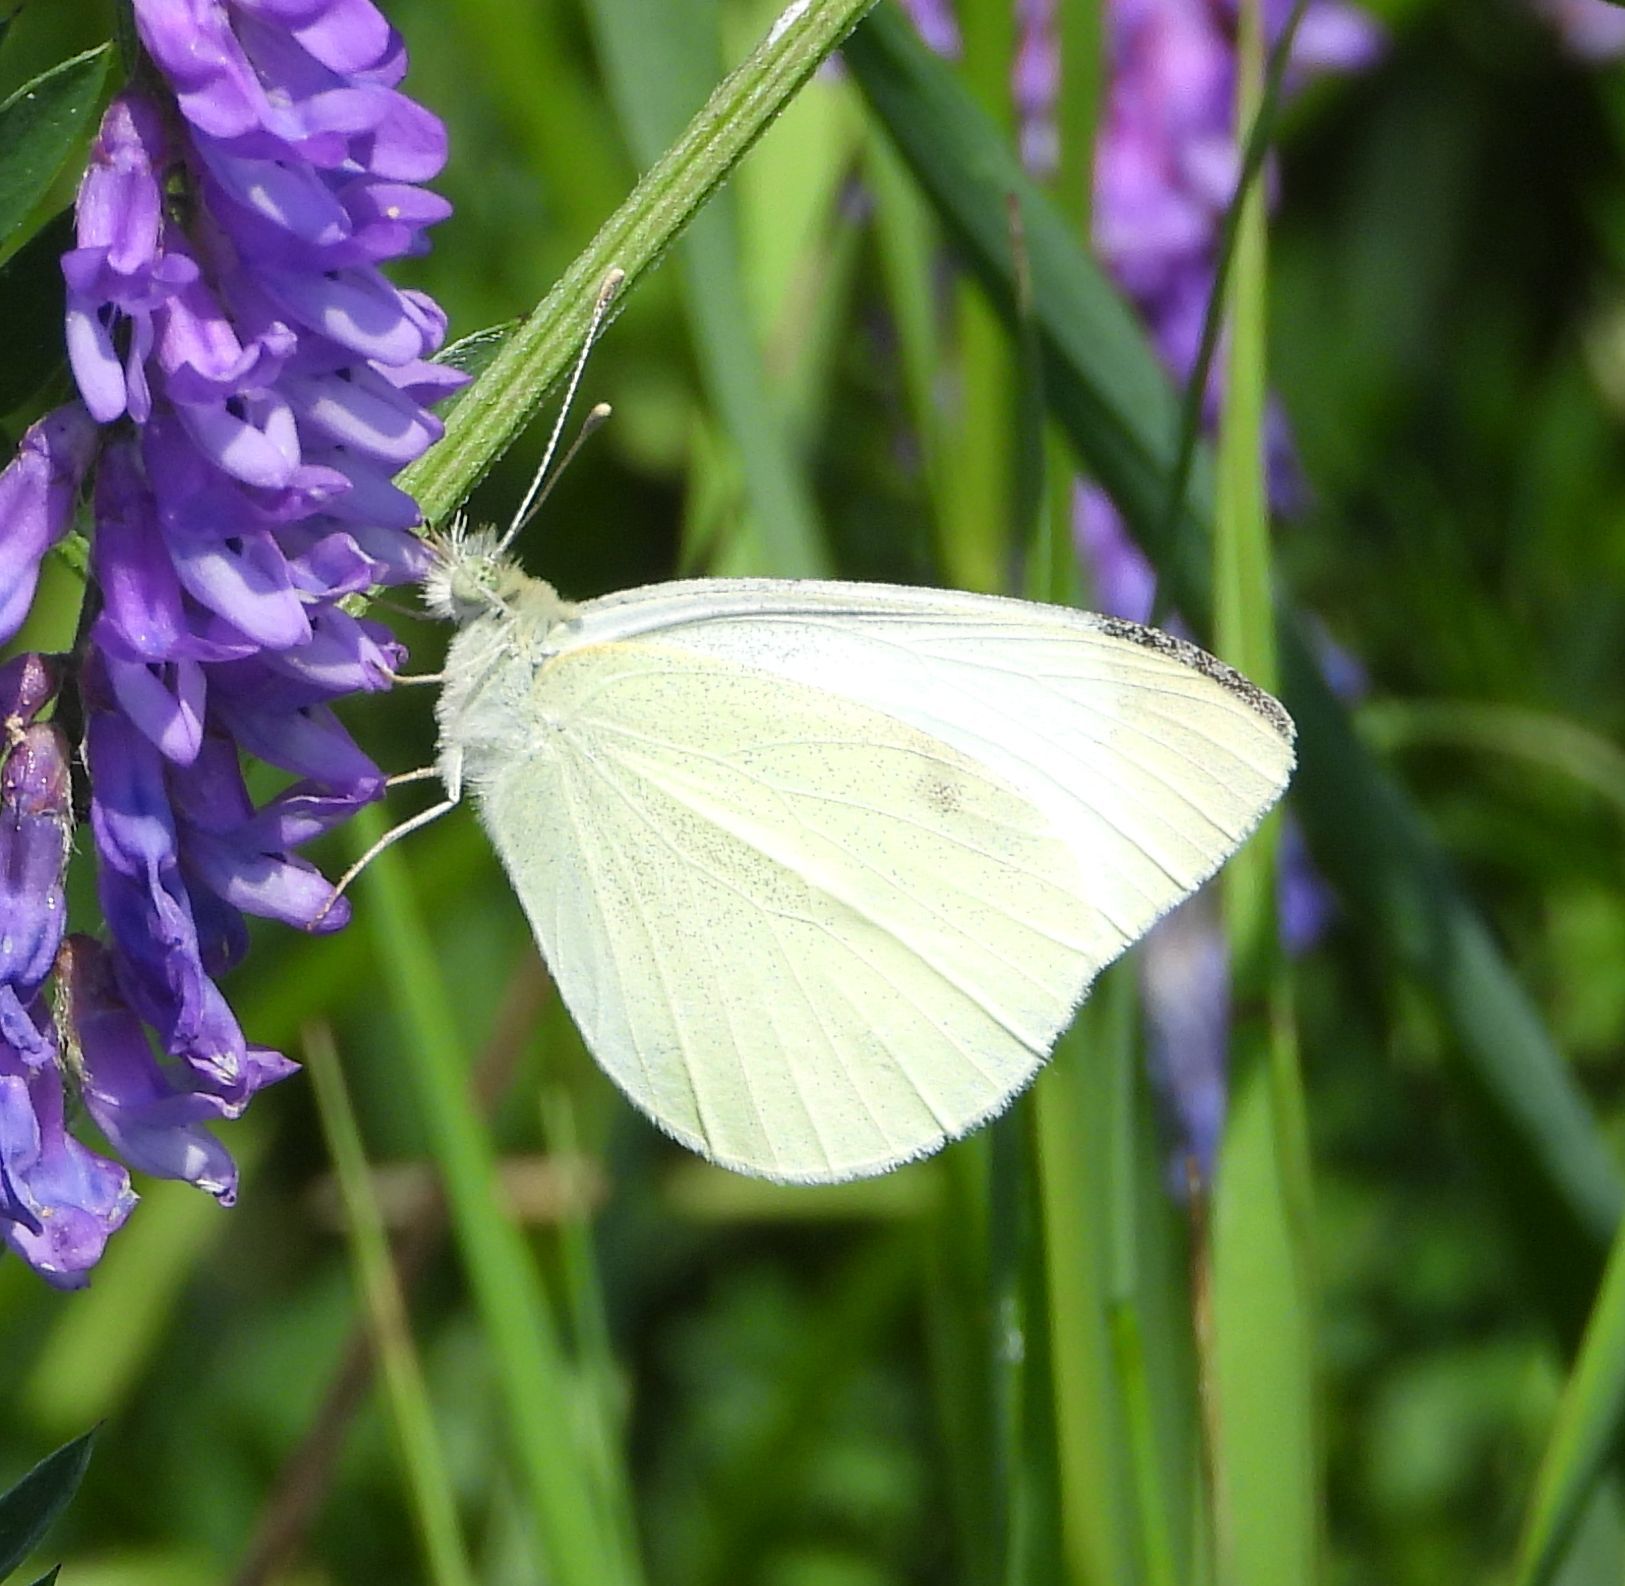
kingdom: Animalia
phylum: Arthropoda
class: Insecta
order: Lepidoptera
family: Pieridae
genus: Pieris
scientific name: Pieris rapae
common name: Small white
